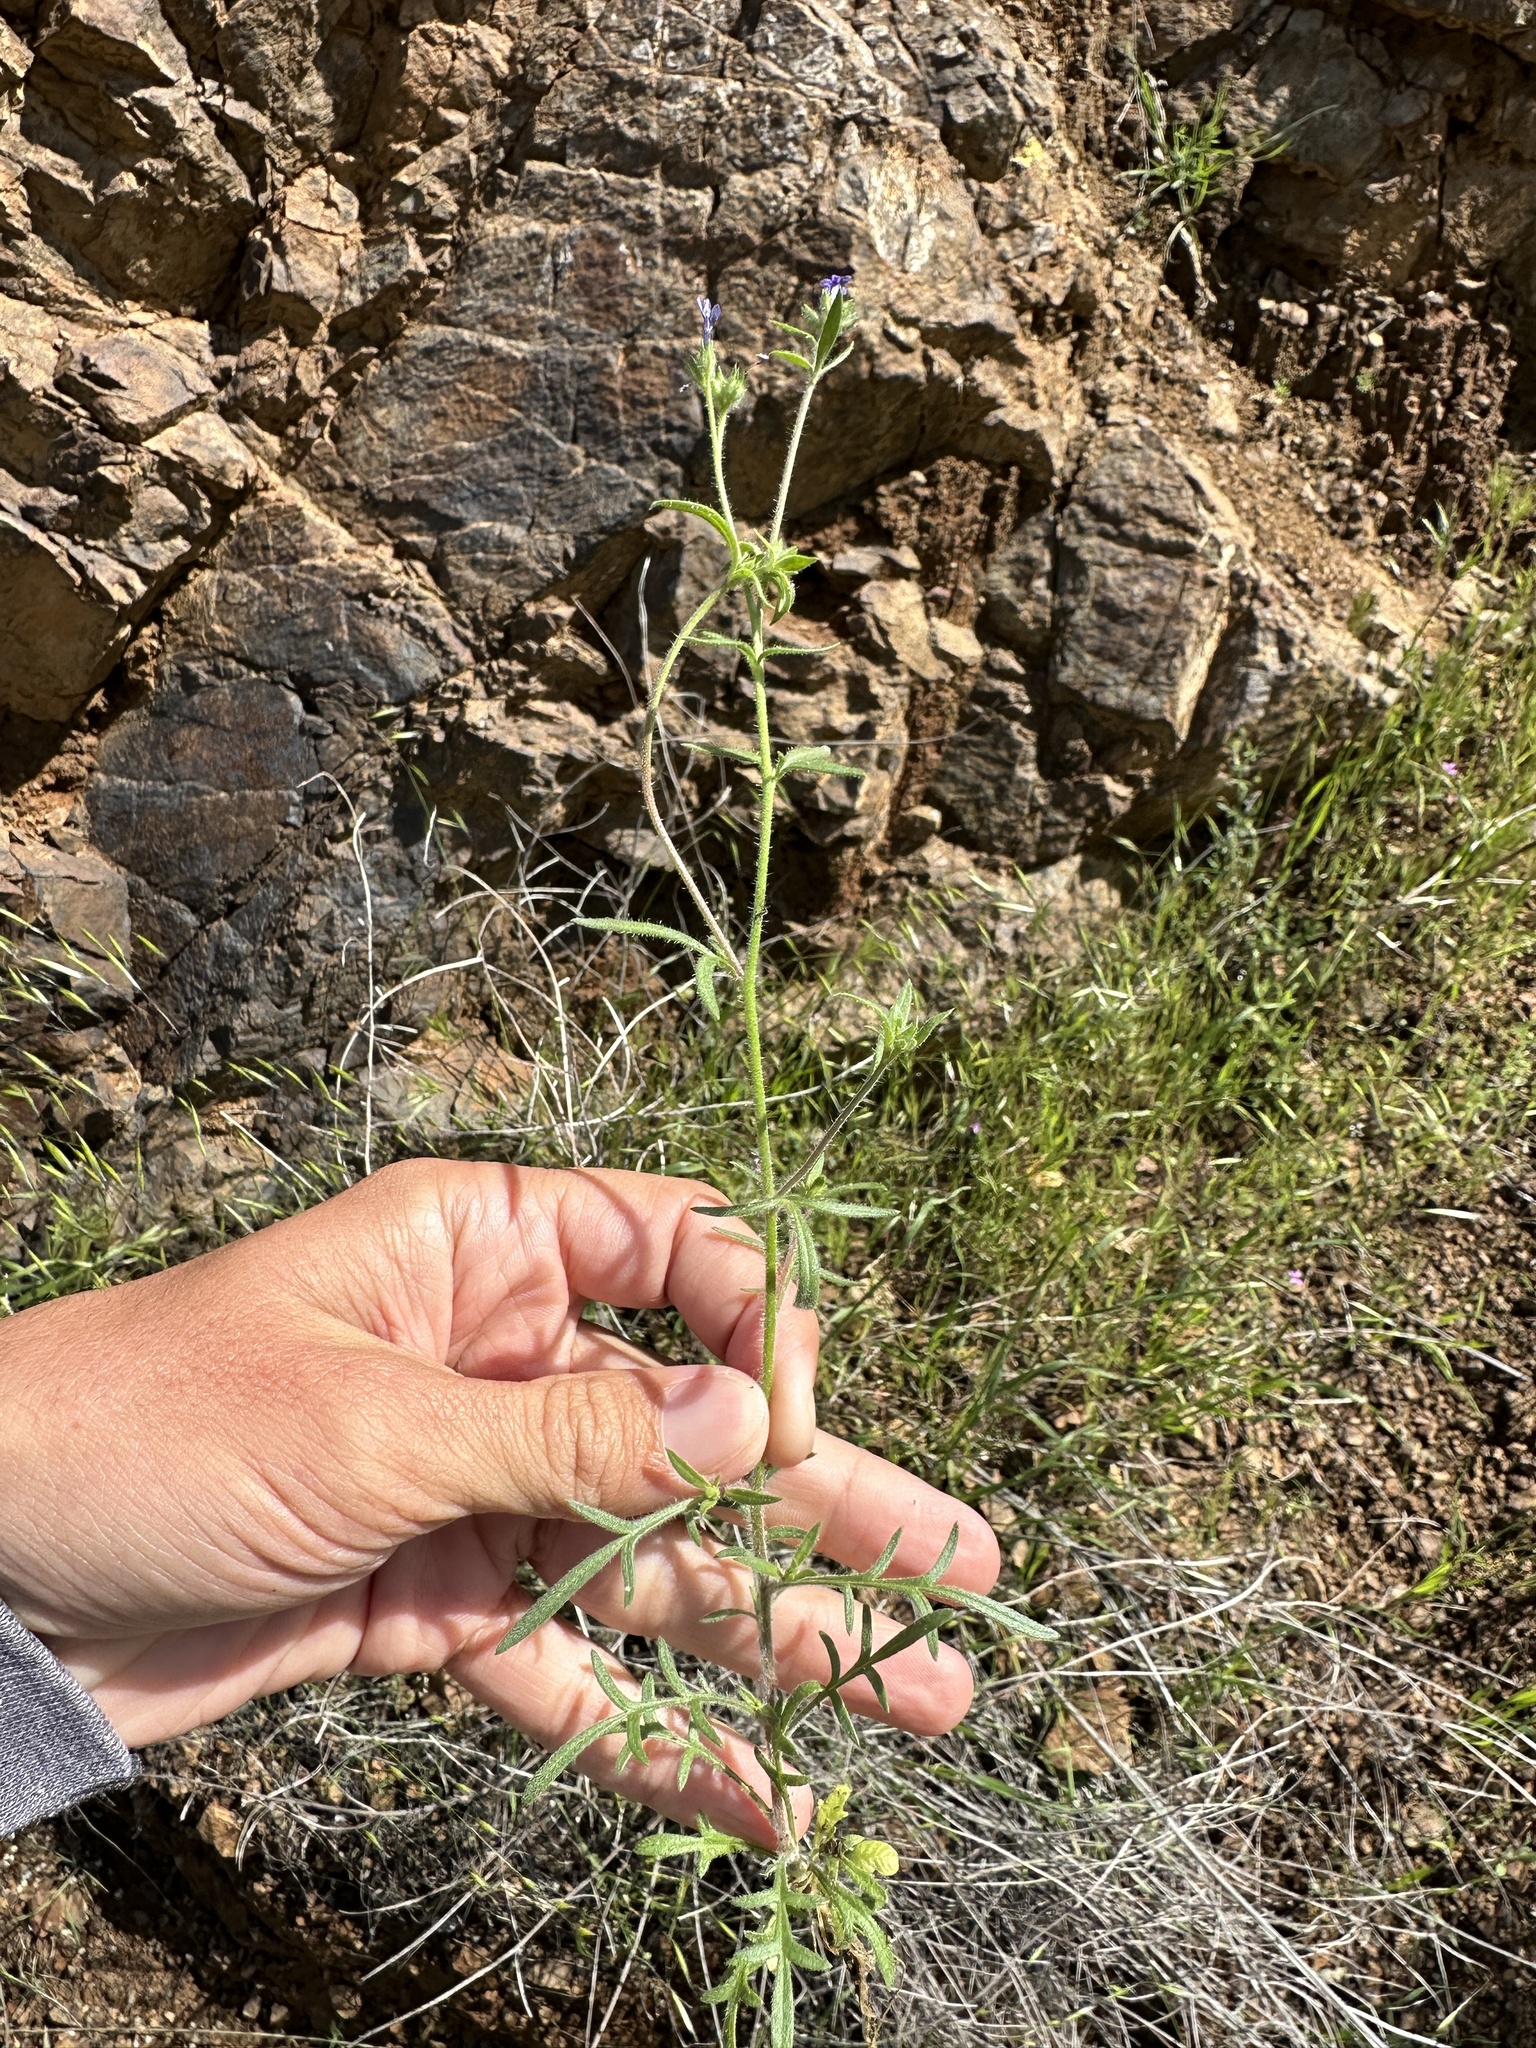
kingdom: Plantae
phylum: Tracheophyta
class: Magnoliopsida
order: Ericales
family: Polemoniaceae
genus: Allophyllum
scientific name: Allophyllum gilioides
